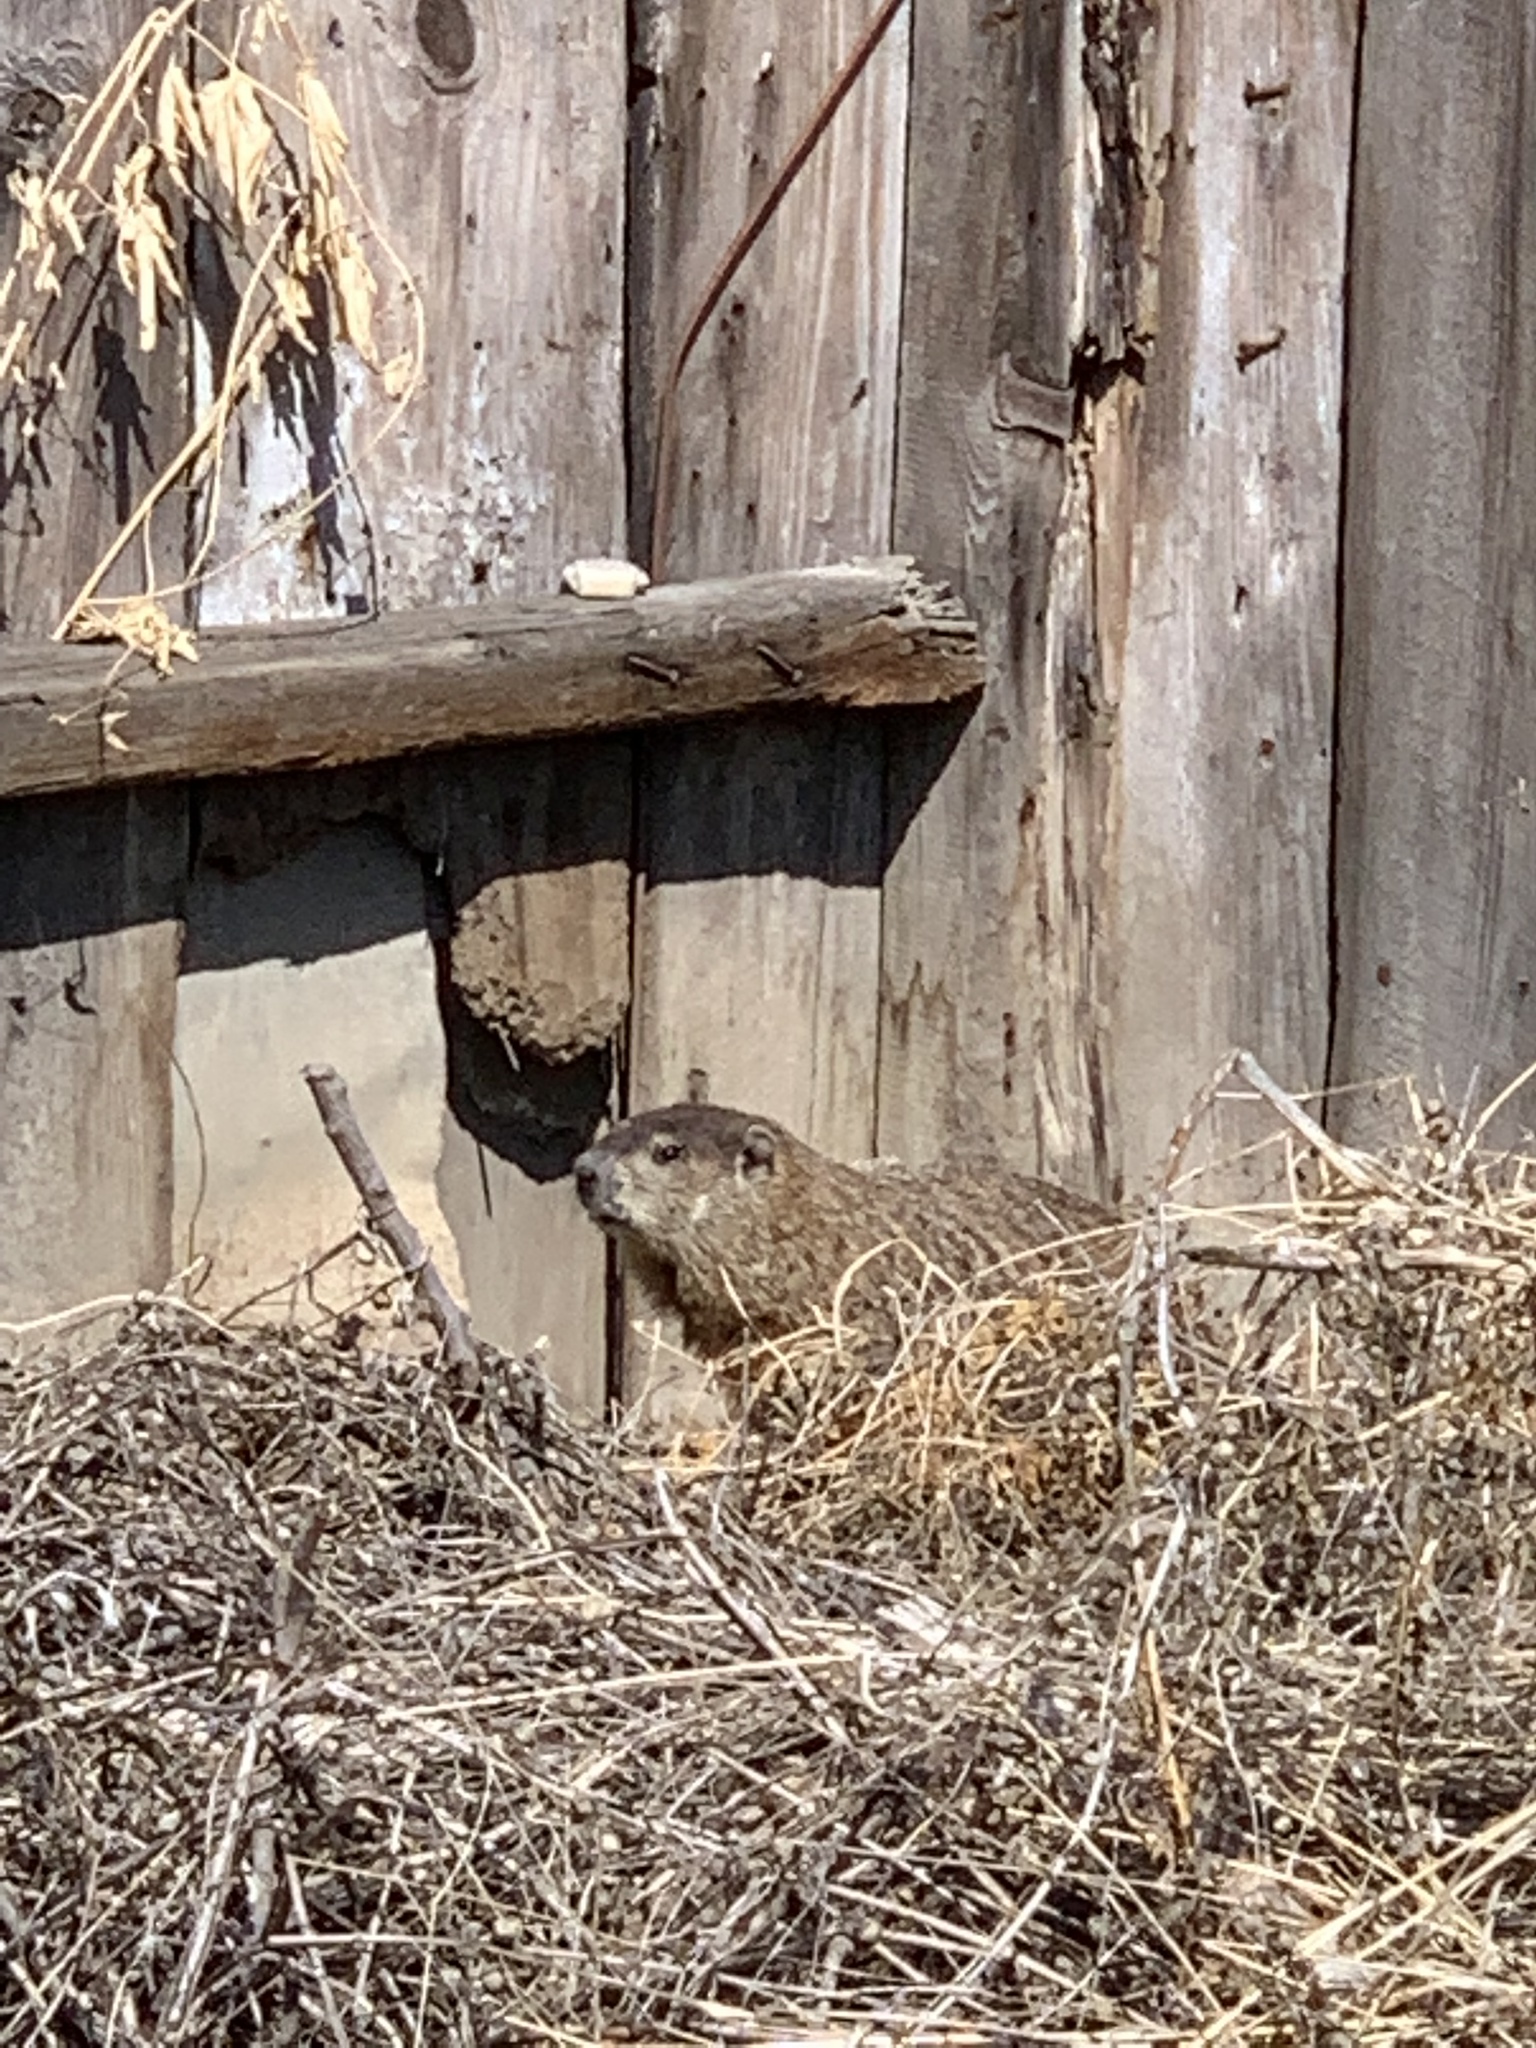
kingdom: Animalia
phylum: Chordata
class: Mammalia
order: Rodentia
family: Sciuridae
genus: Marmota
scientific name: Marmota monax
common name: Groundhog
